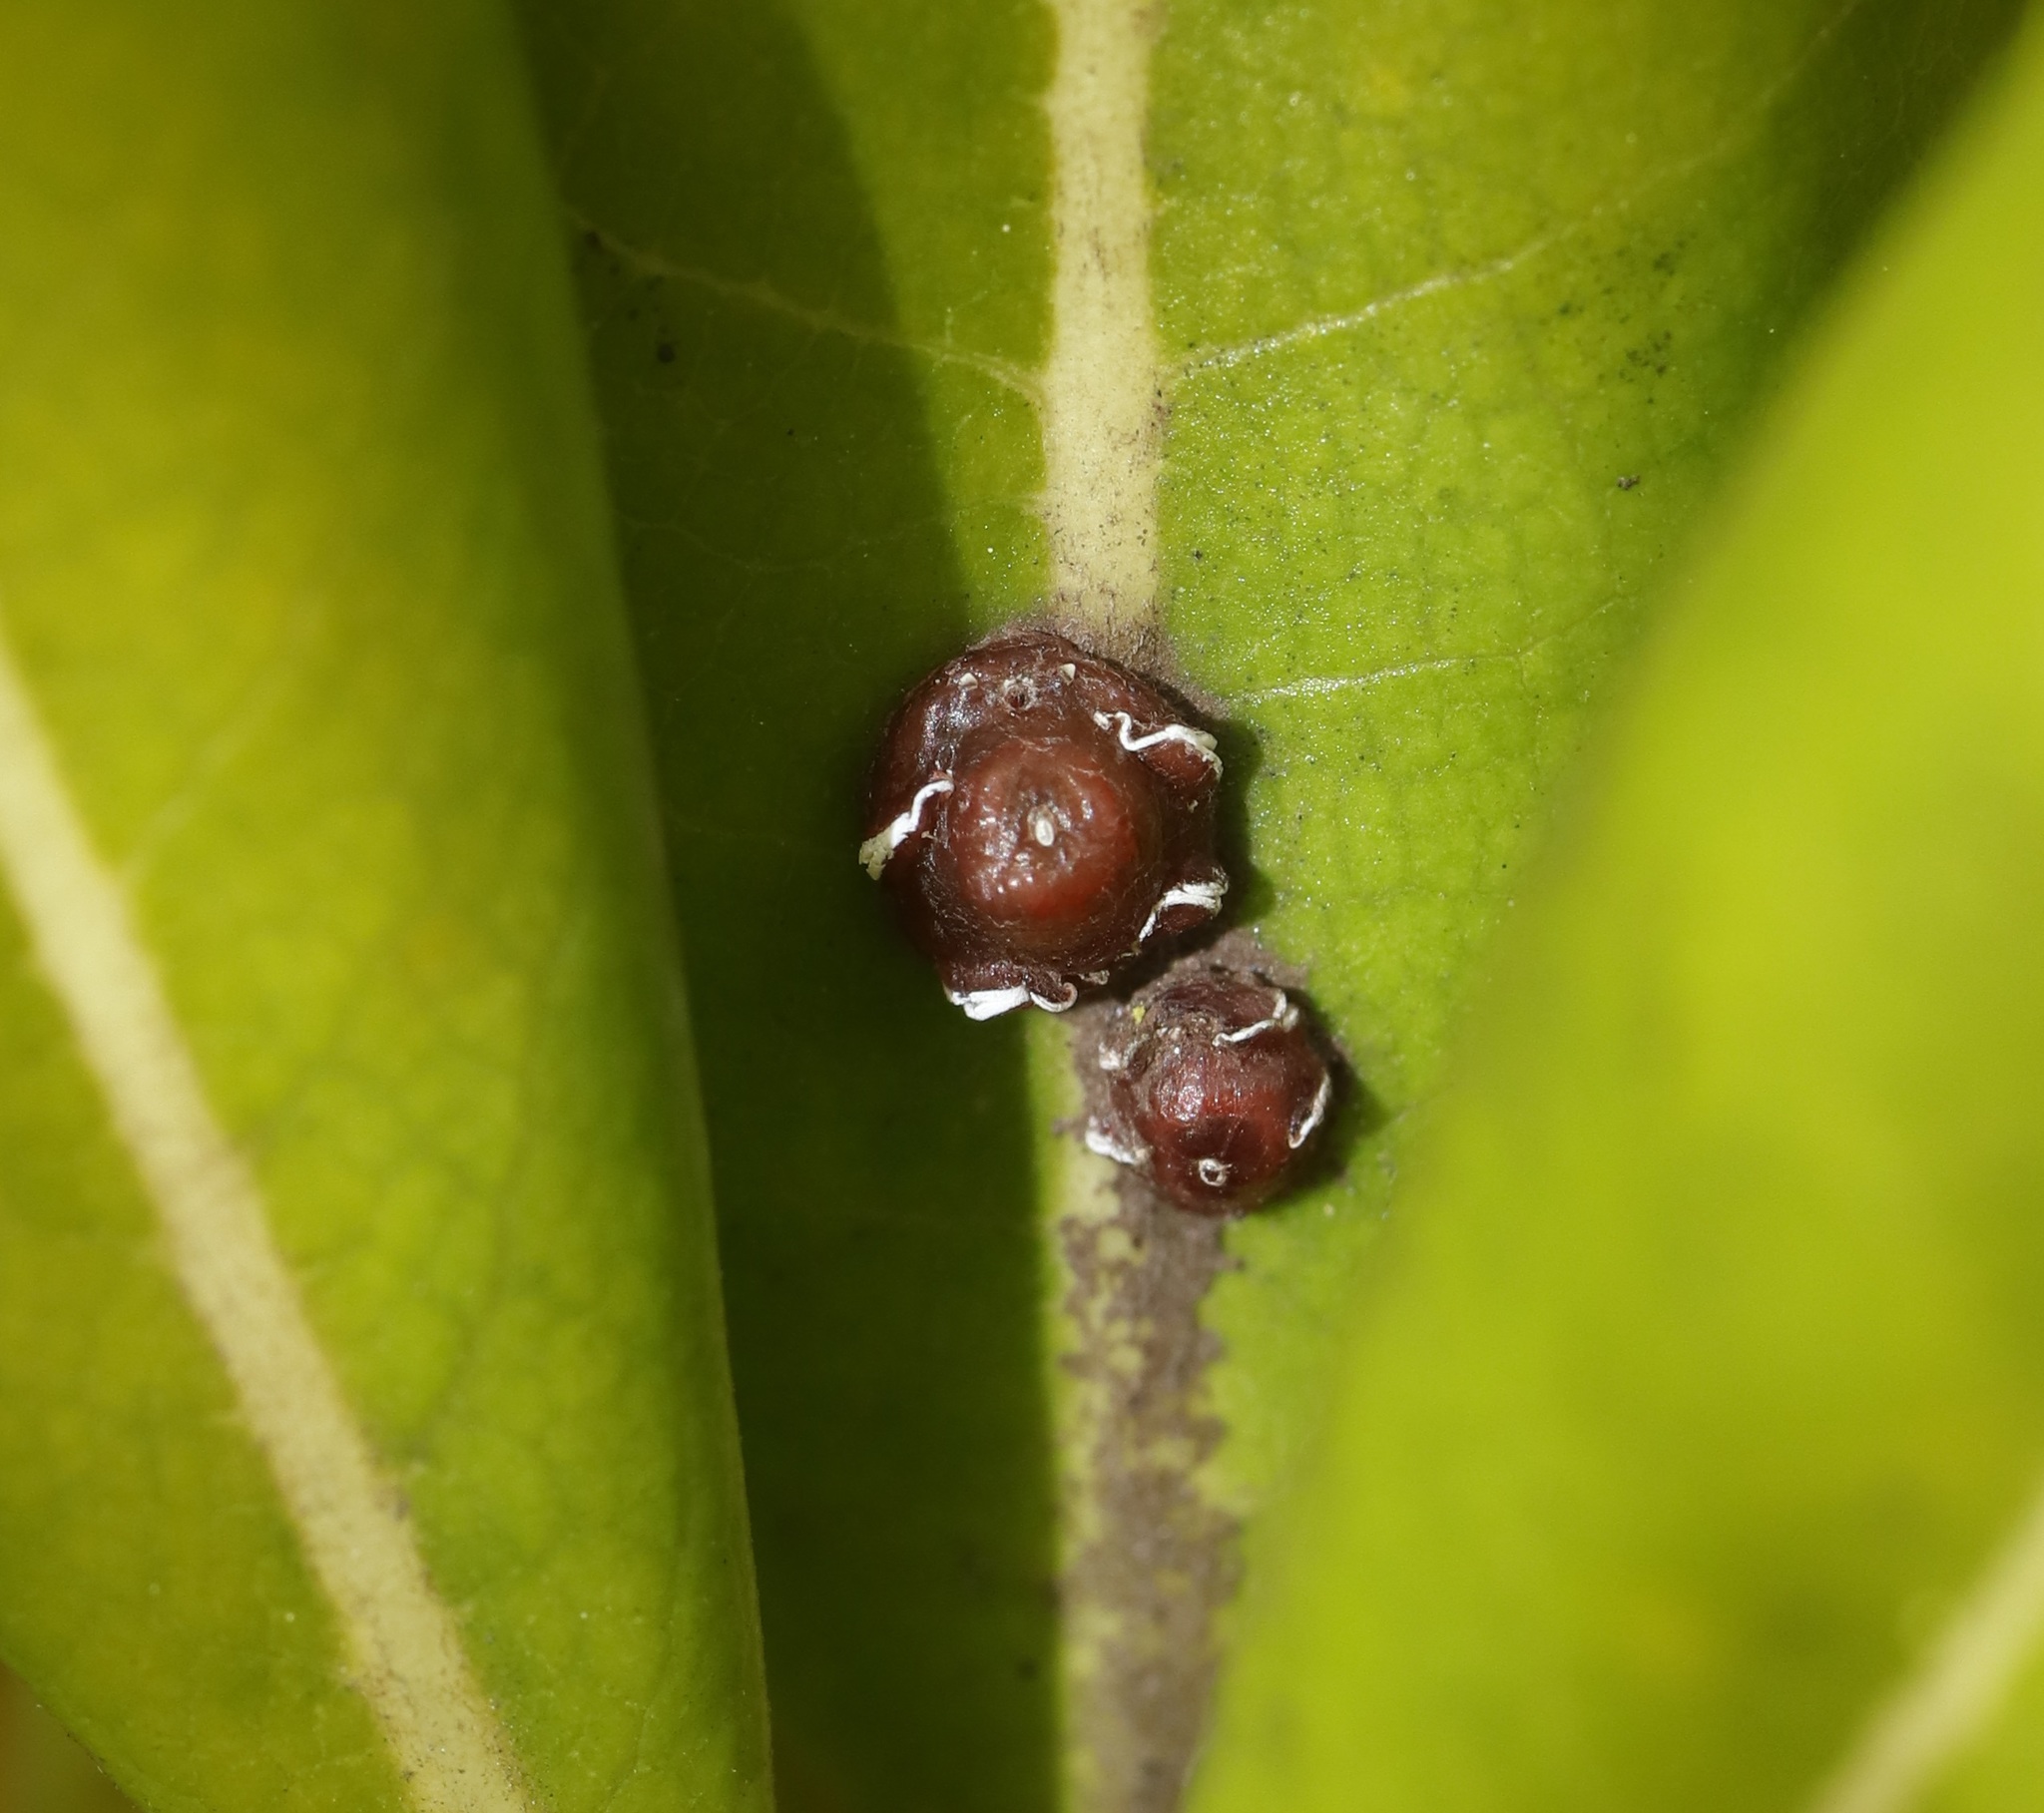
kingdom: Animalia
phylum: Arthropoda
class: Insecta
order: Hemiptera
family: Coccidae
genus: Ceroplastes
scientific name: Ceroplastes rubens
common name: Pink wax scale
